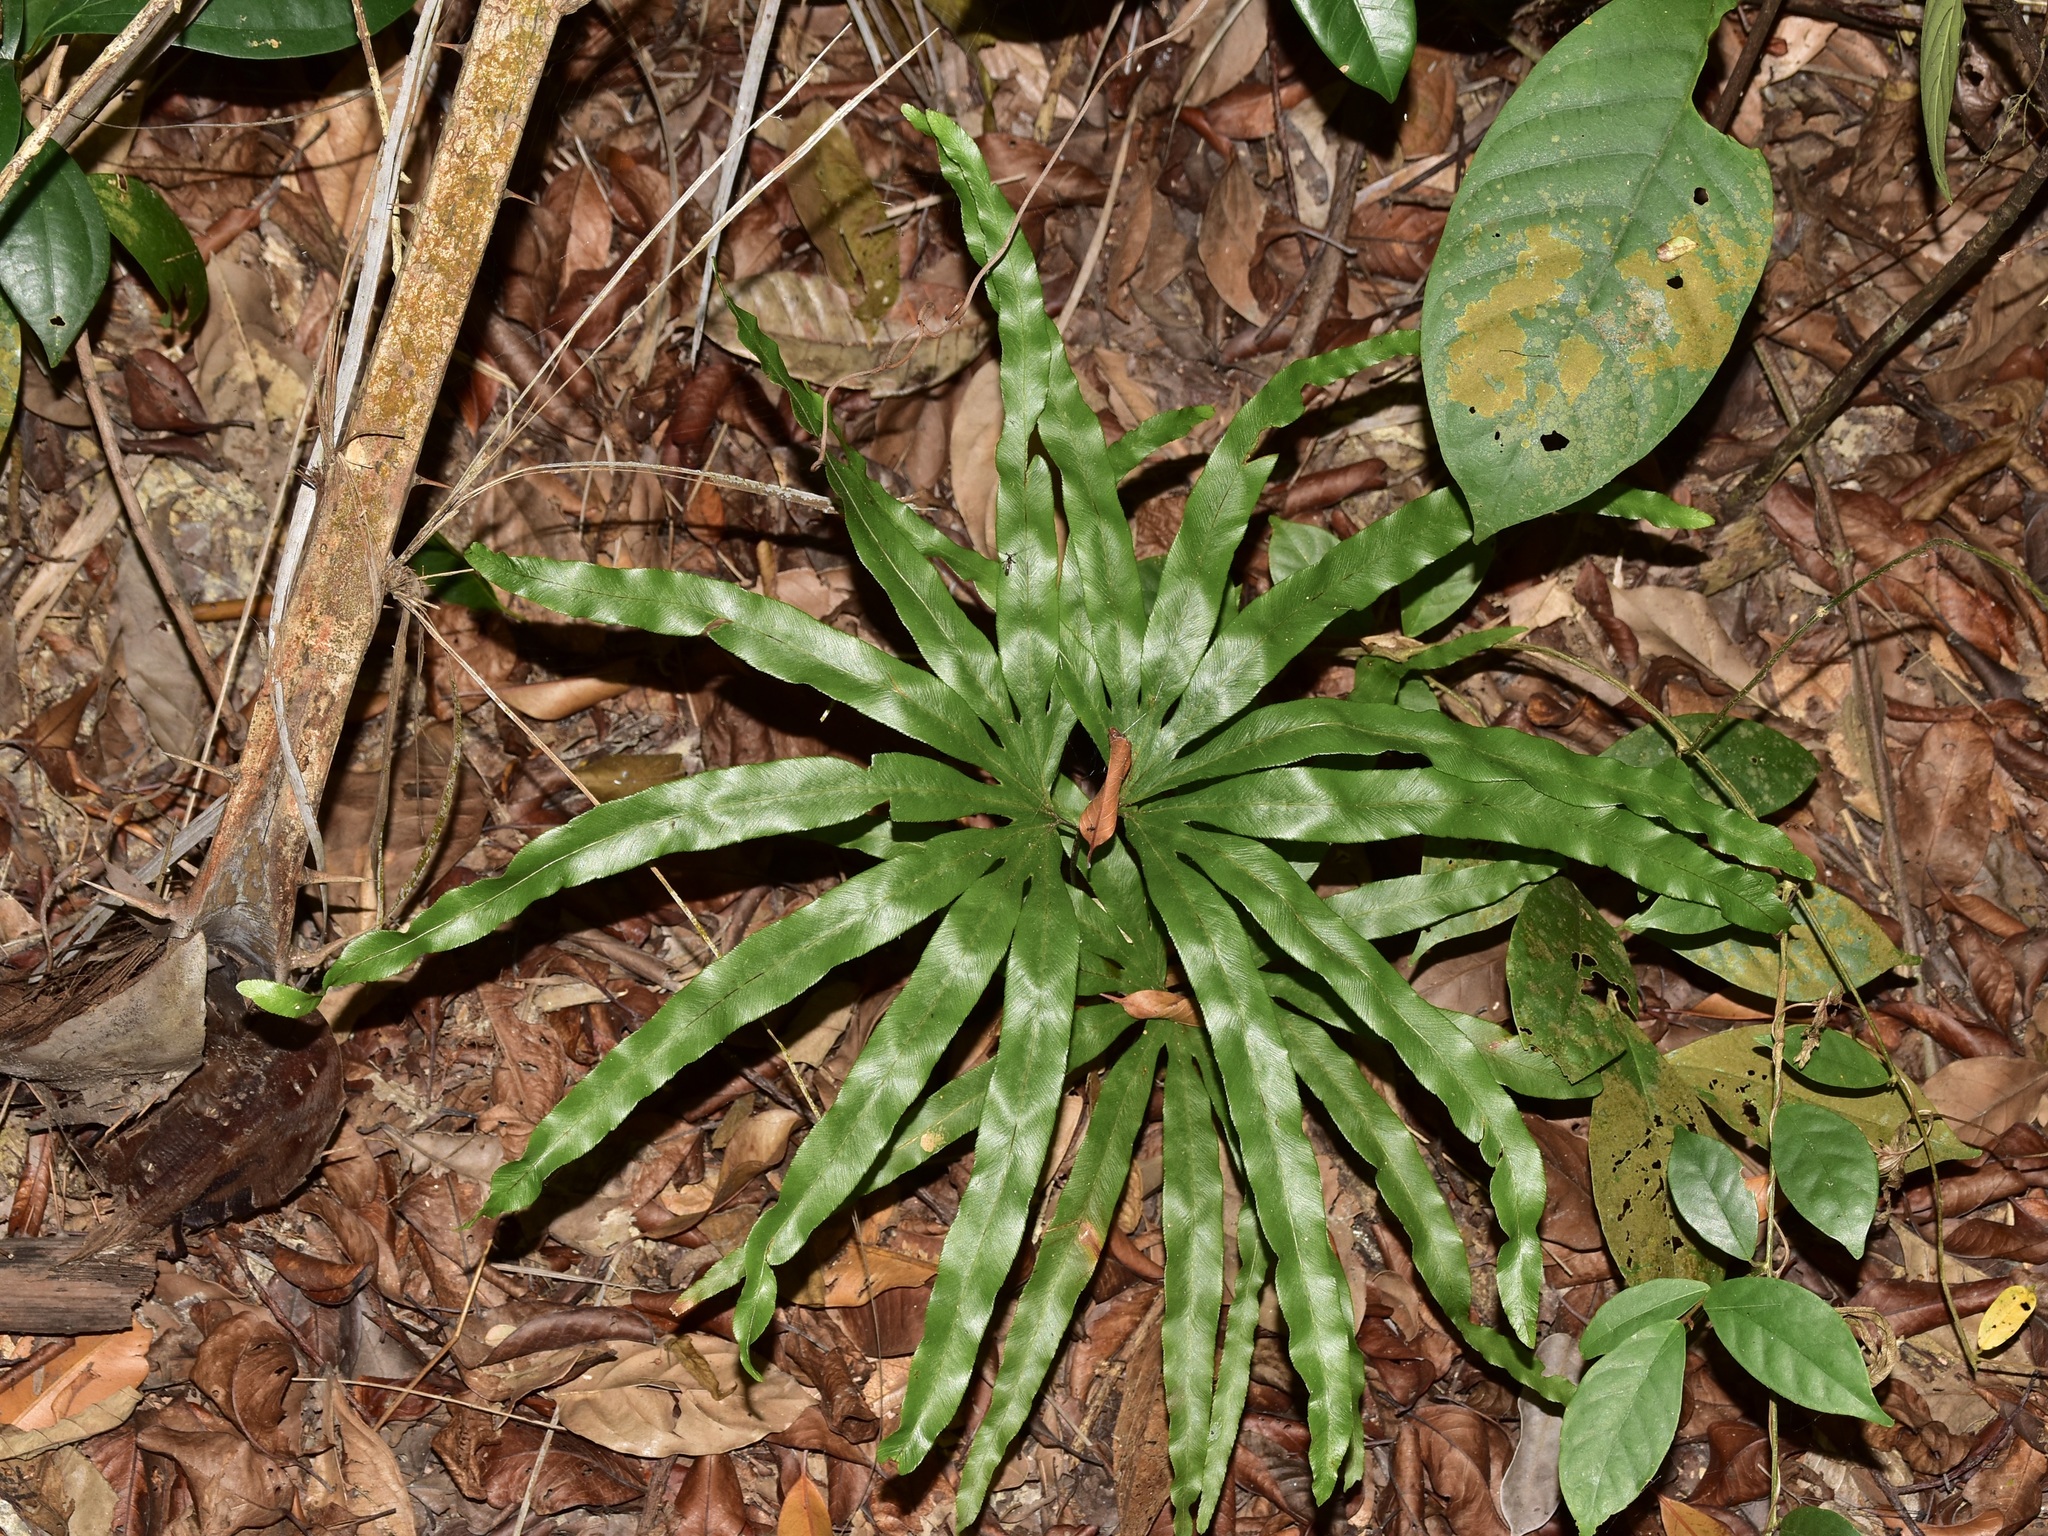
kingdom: Plantae
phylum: Tracheophyta
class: Polypodiopsida
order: Schizaeales
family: Lygodiaceae
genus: Lygodium
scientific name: Lygodium longifolium
